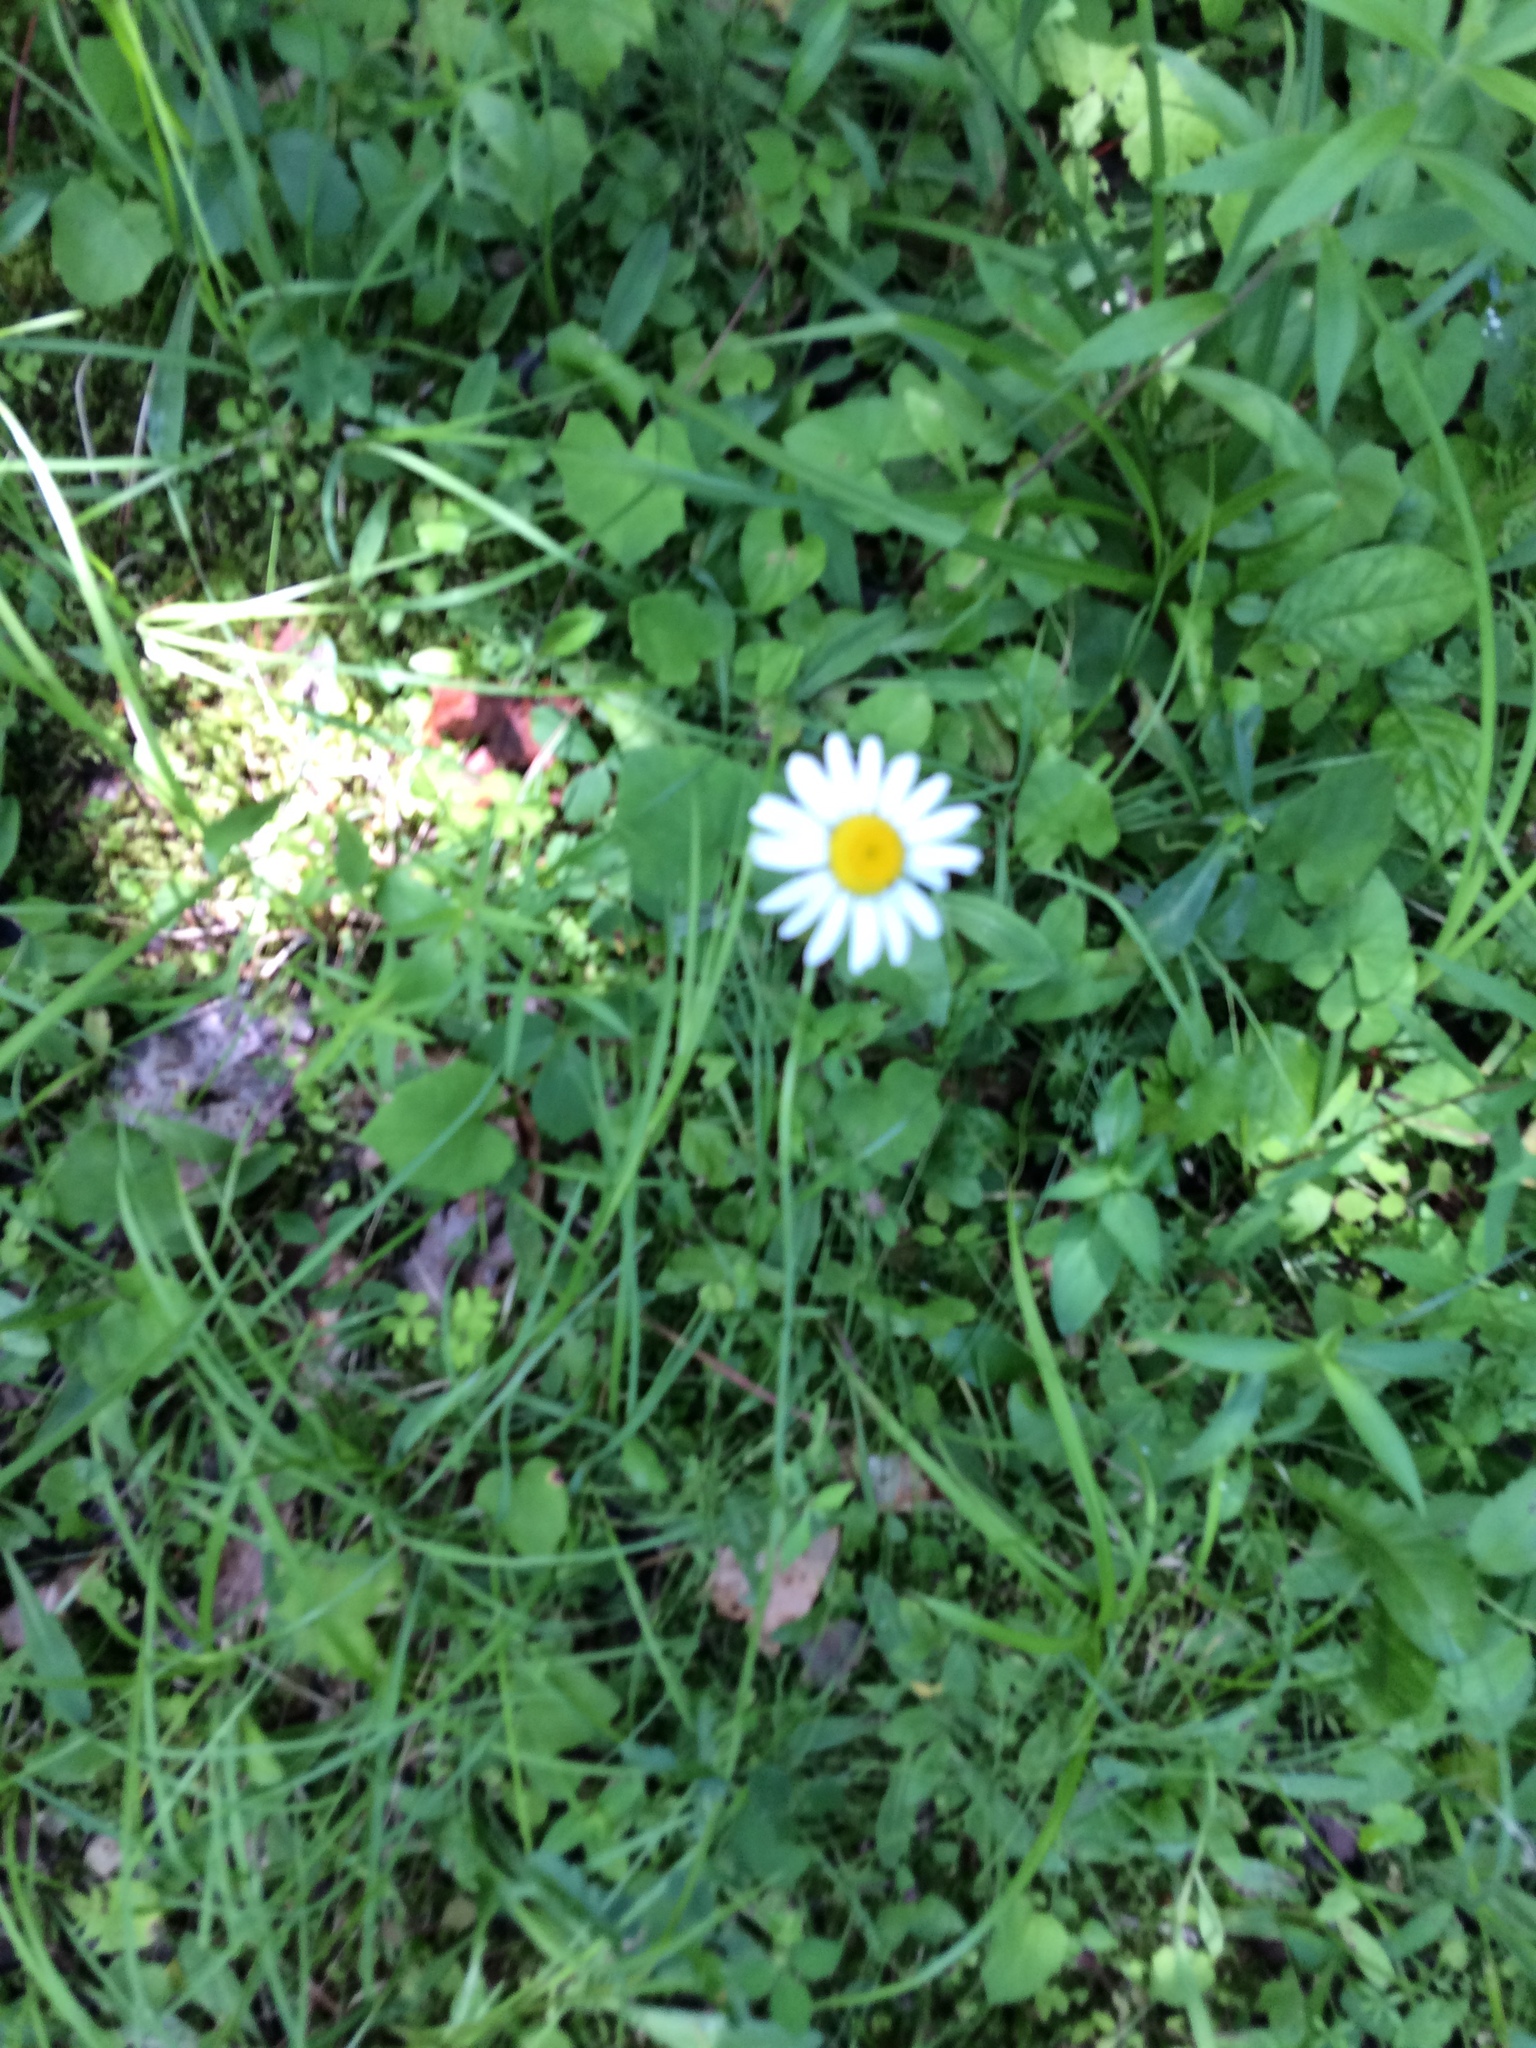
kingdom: Plantae
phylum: Tracheophyta
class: Magnoliopsida
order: Asterales
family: Asteraceae
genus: Leucanthemum
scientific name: Leucanthemum vulgare
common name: Oxeye daisy
